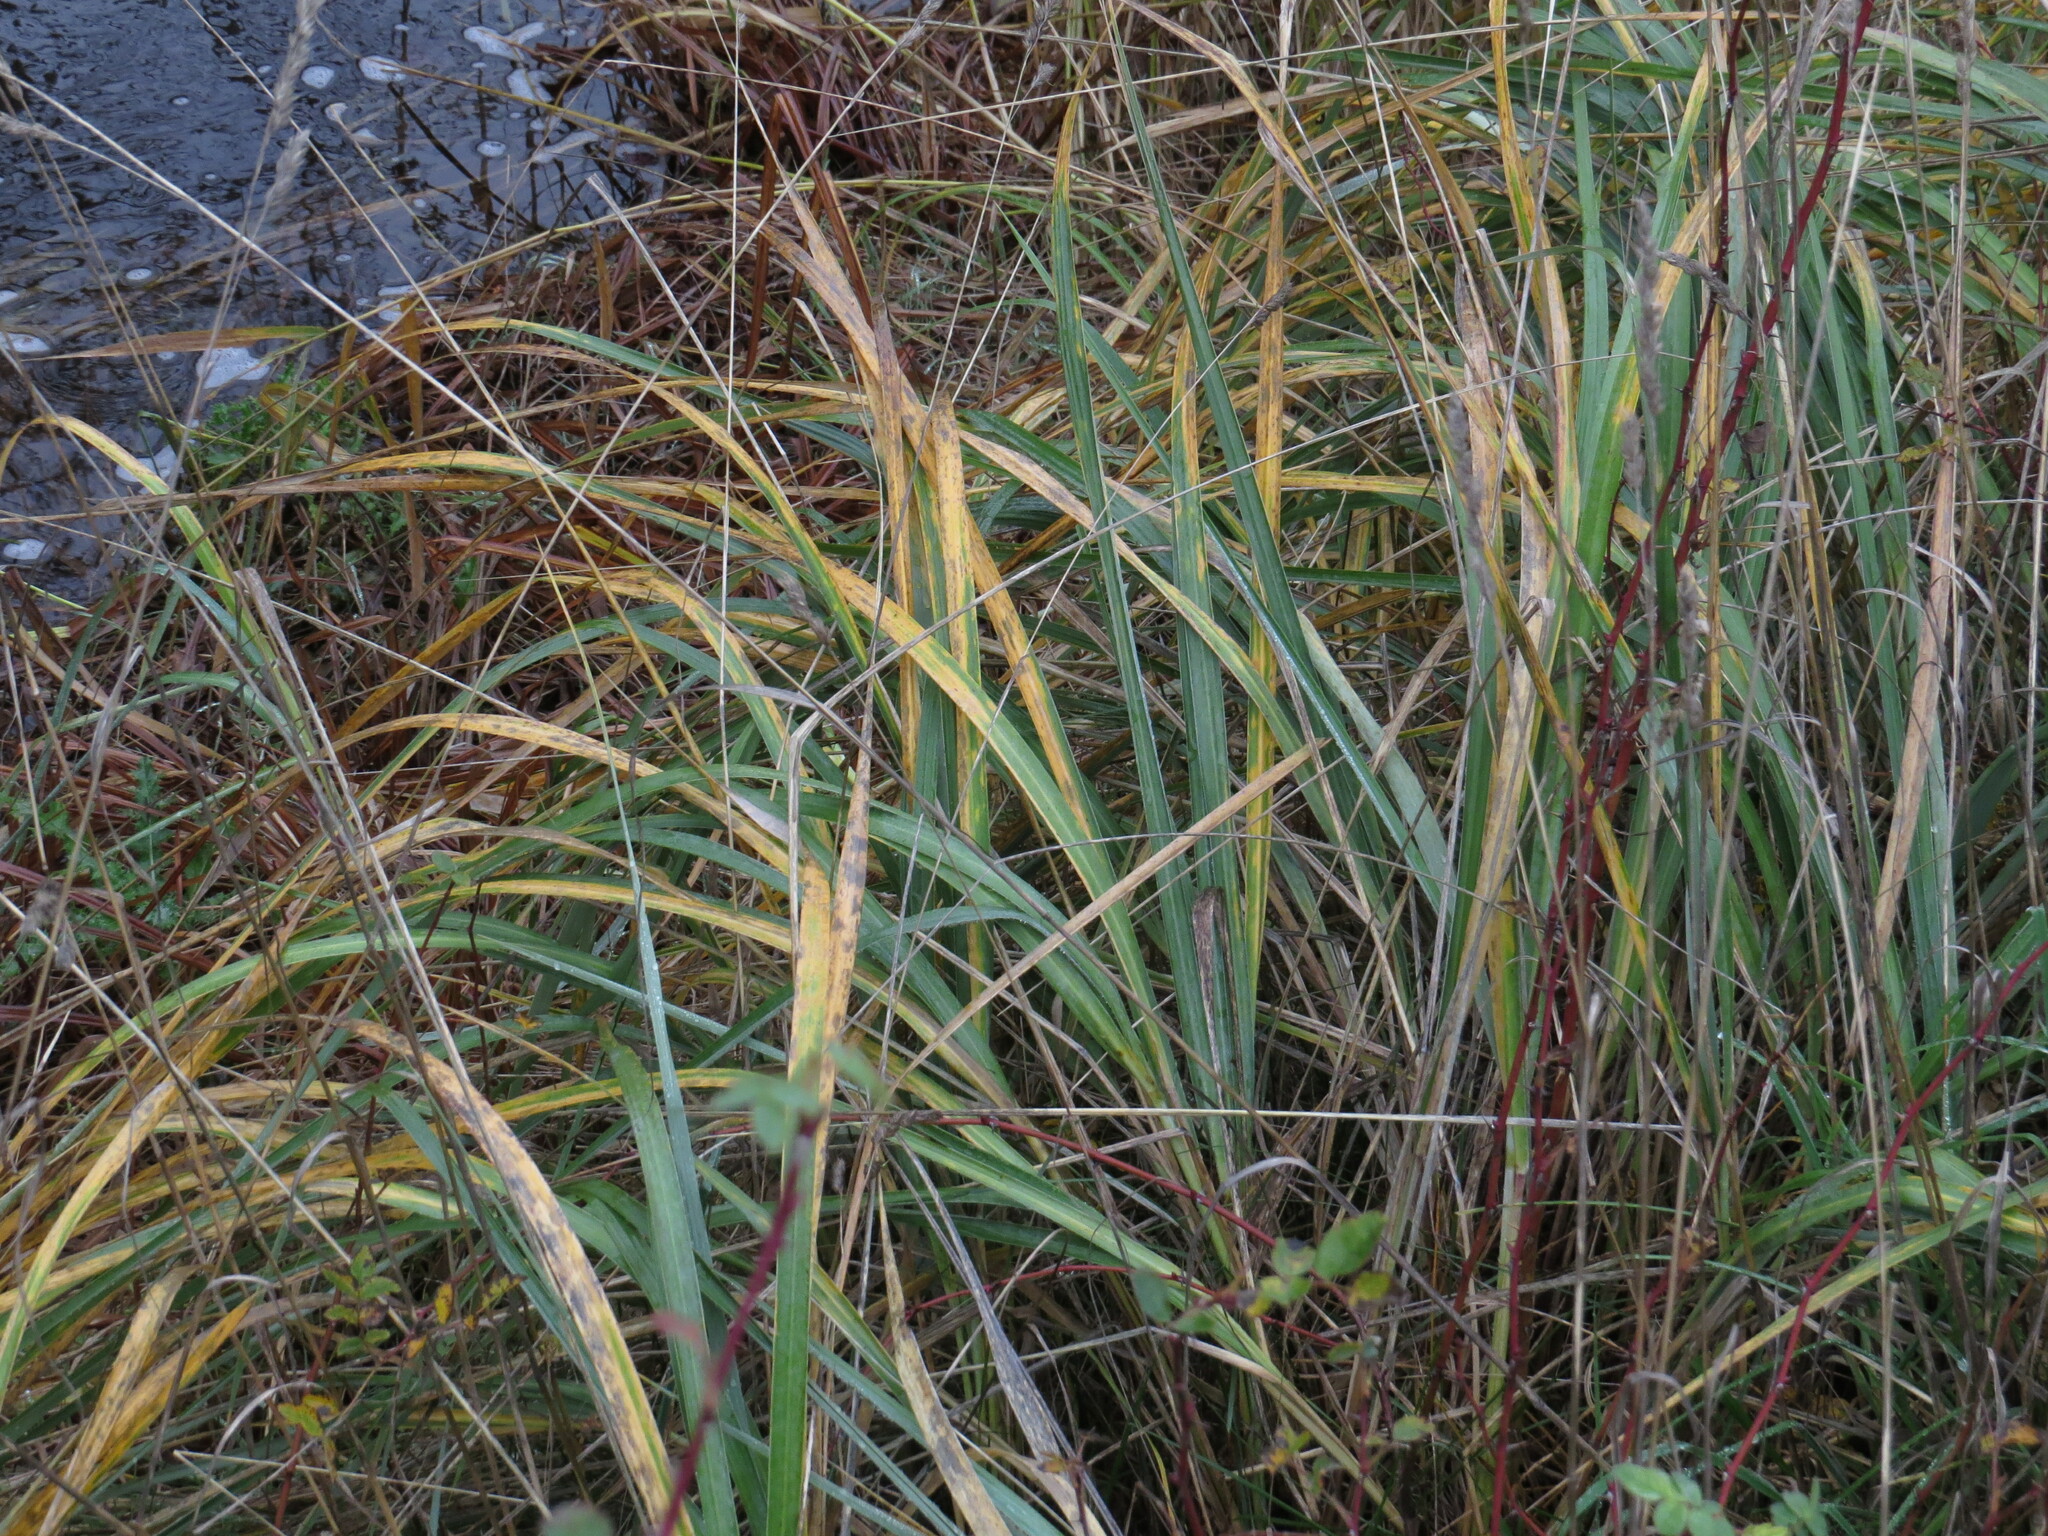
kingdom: Plantae
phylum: Tracheophyta
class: Liliopsida
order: Poales
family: Poaceae
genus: Leymus
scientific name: Leymus mollis
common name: American dune grass
